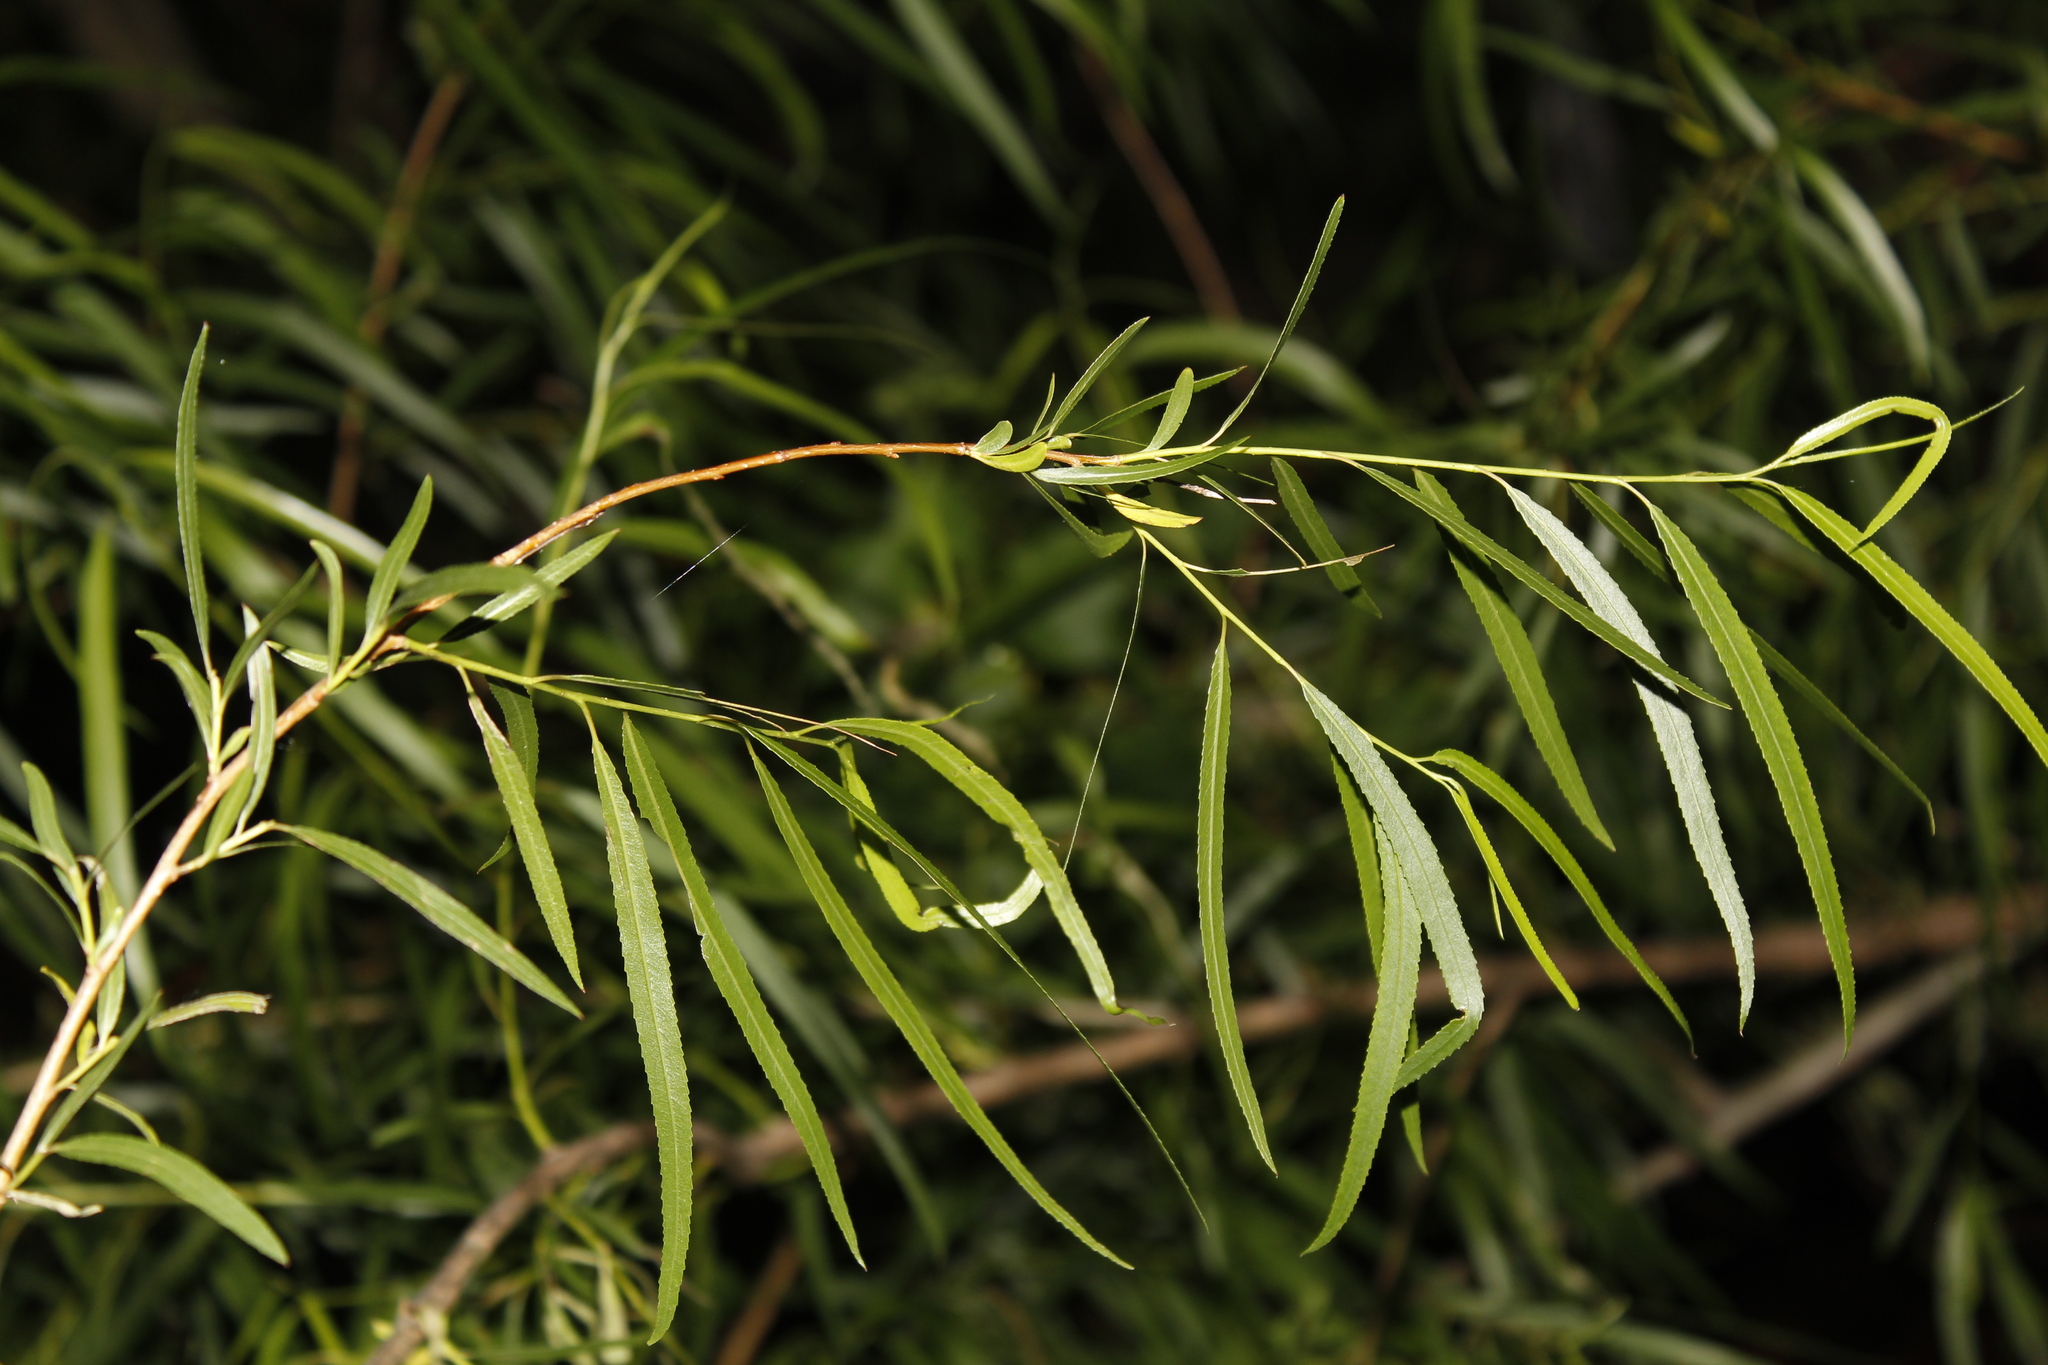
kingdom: Plantae
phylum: Tracheophyta
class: Magnoliopsida
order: Malpighiales
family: Salicaceae
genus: Salix
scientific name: Salix nigra
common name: Black willow
